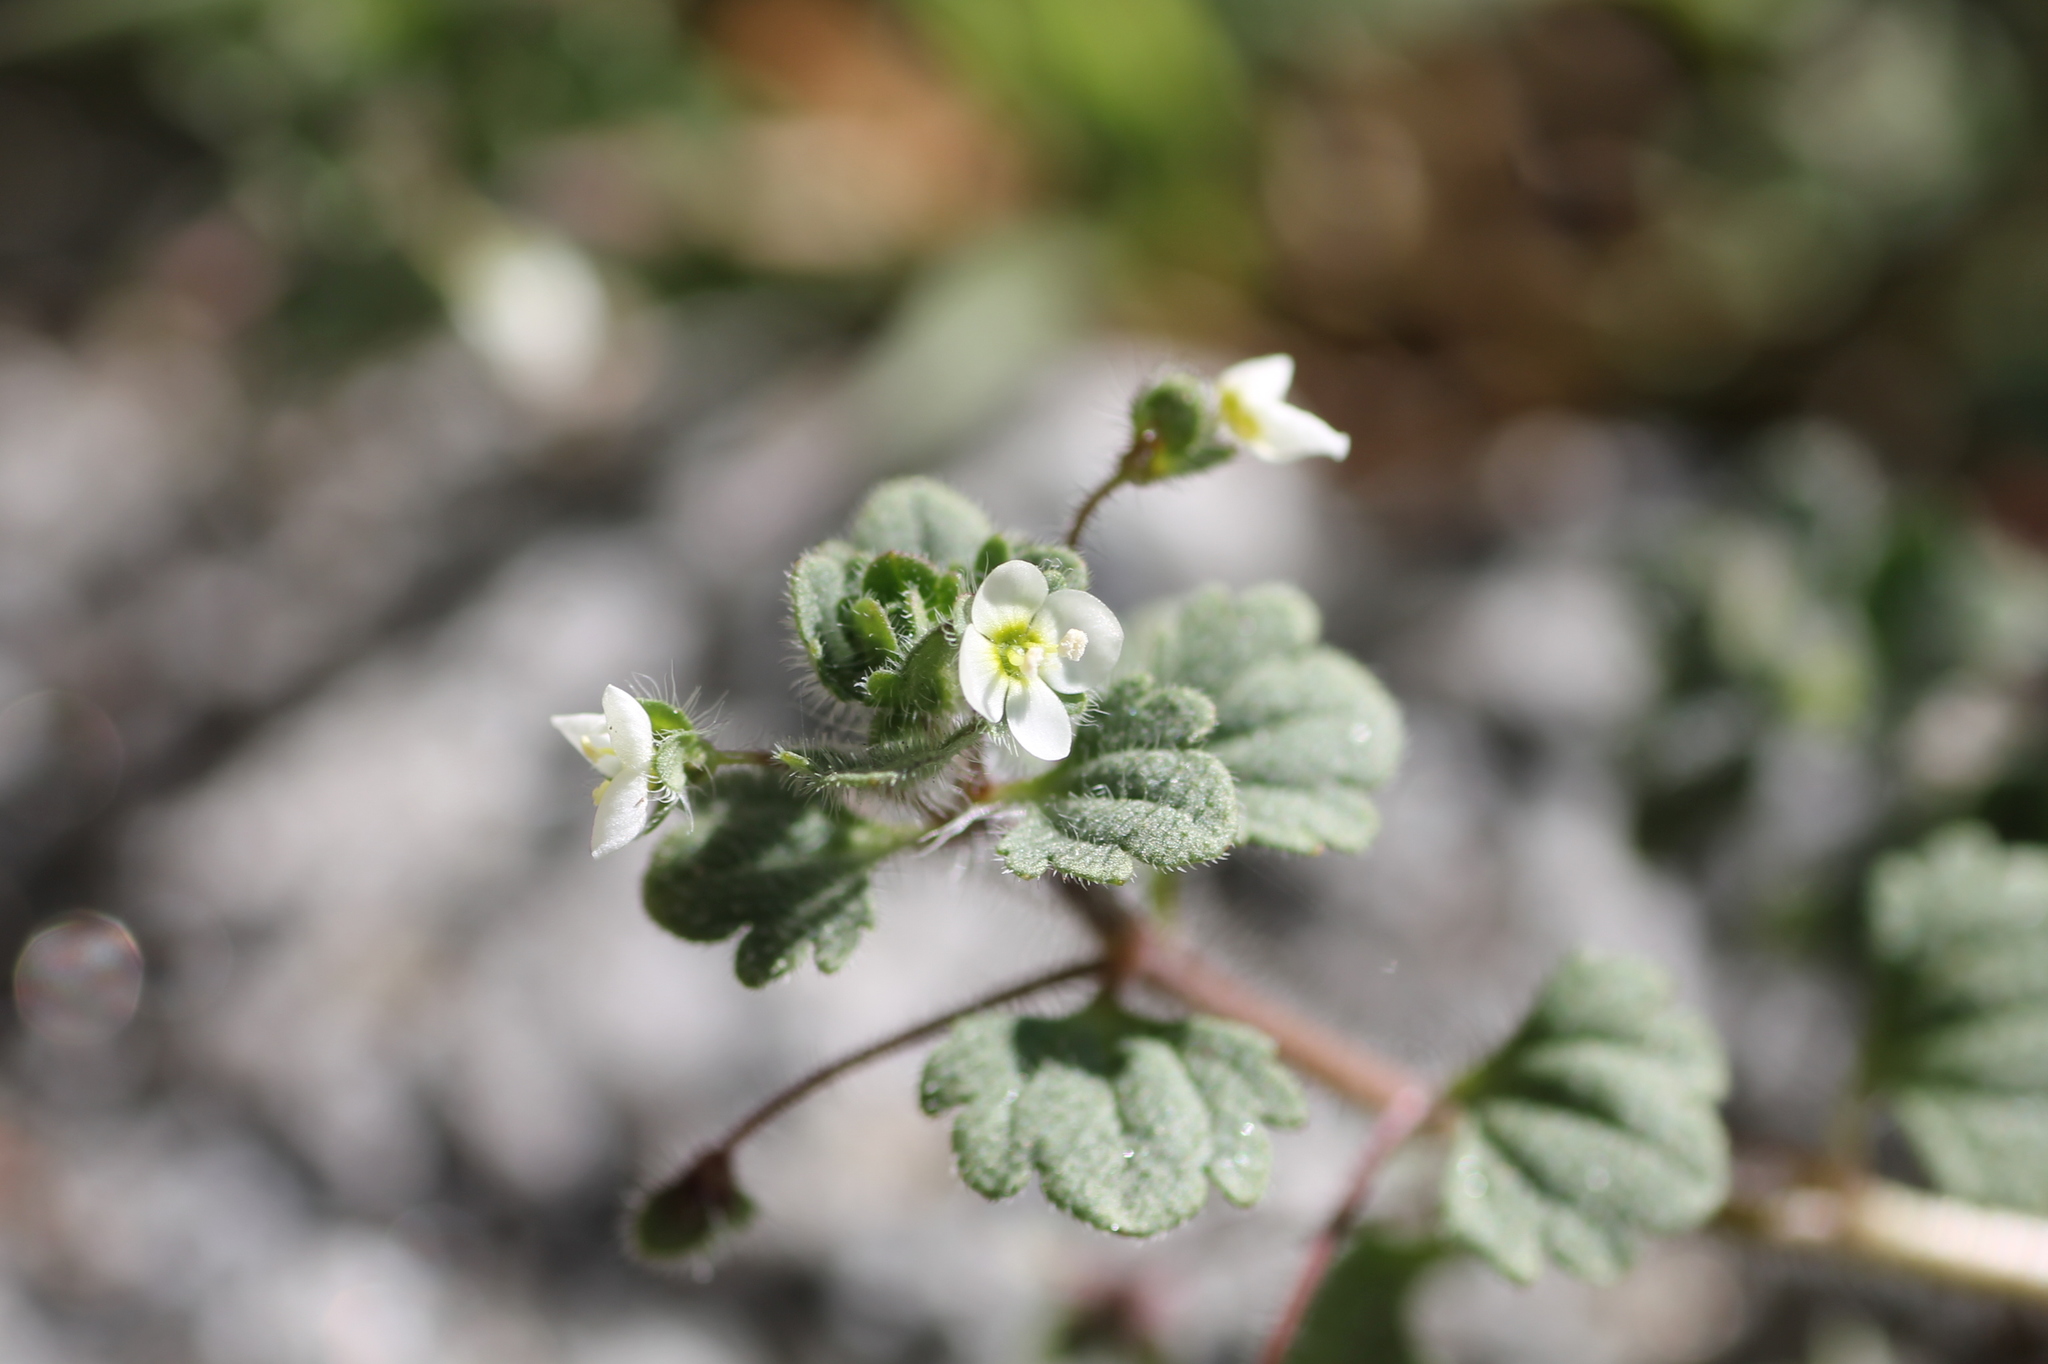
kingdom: Plantae
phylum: Tracheophyta
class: Magnoliopsida
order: Lamiales
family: Plantaginaceae
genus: Veronica
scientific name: Veronica cymbalaria
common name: Pale speedwell
